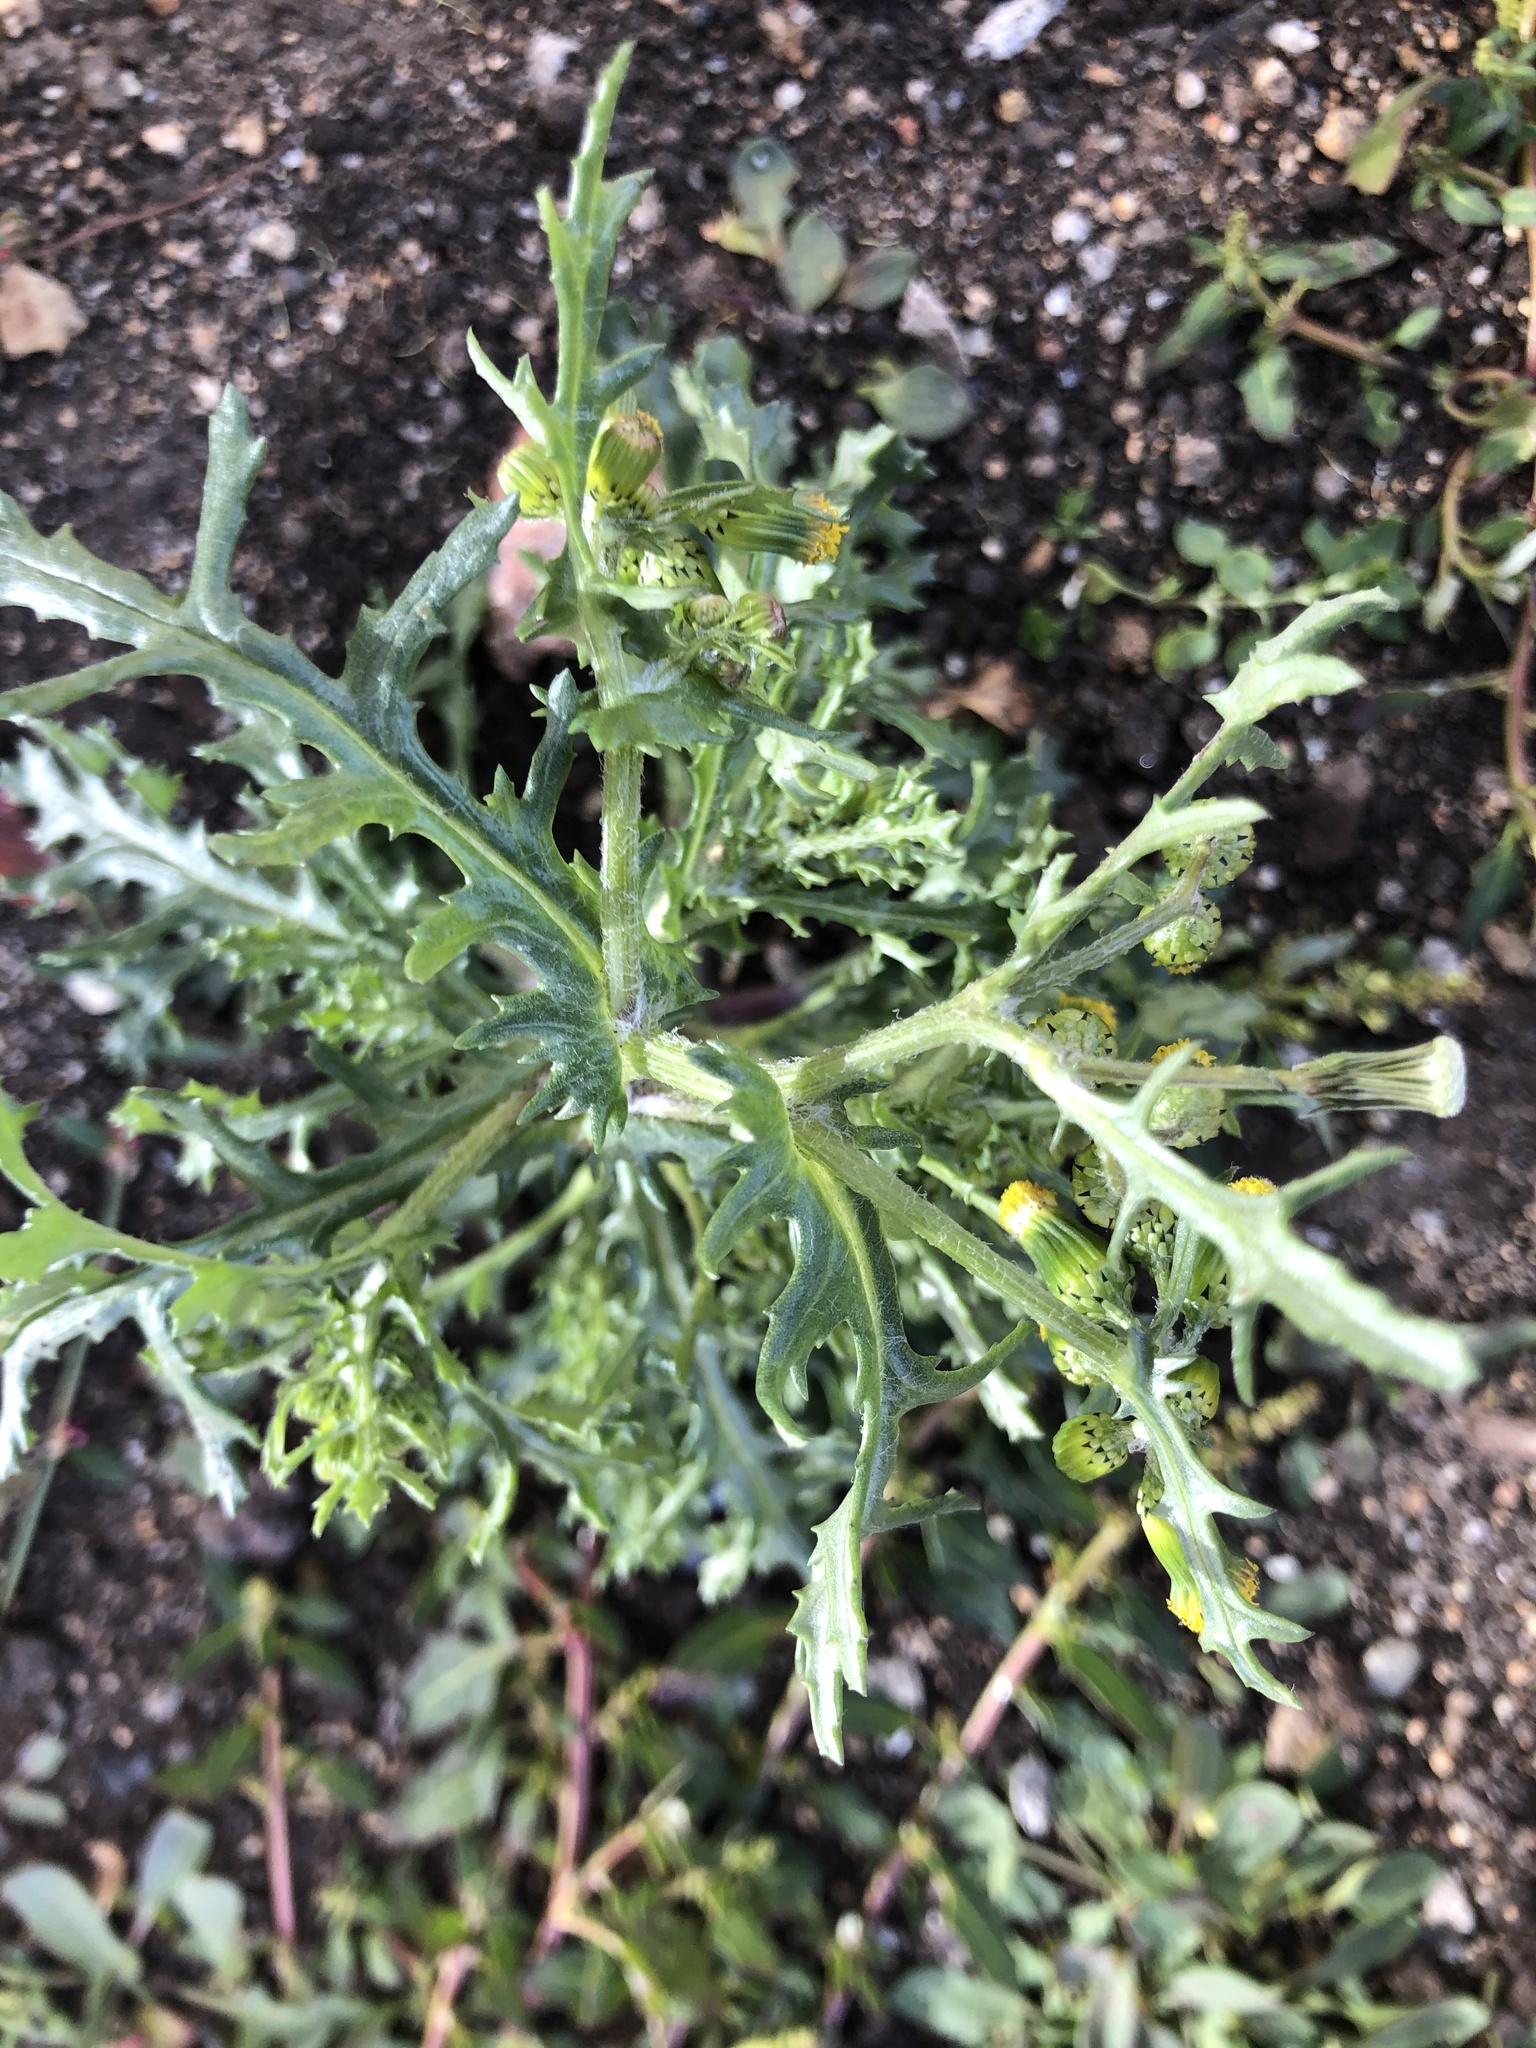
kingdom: Plantae
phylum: Tracheophyta
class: Magnoliopsida
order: Asterales
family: Asteraceae
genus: Senecio
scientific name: Senecio vulgaris
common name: Old-man-in-the-spring
